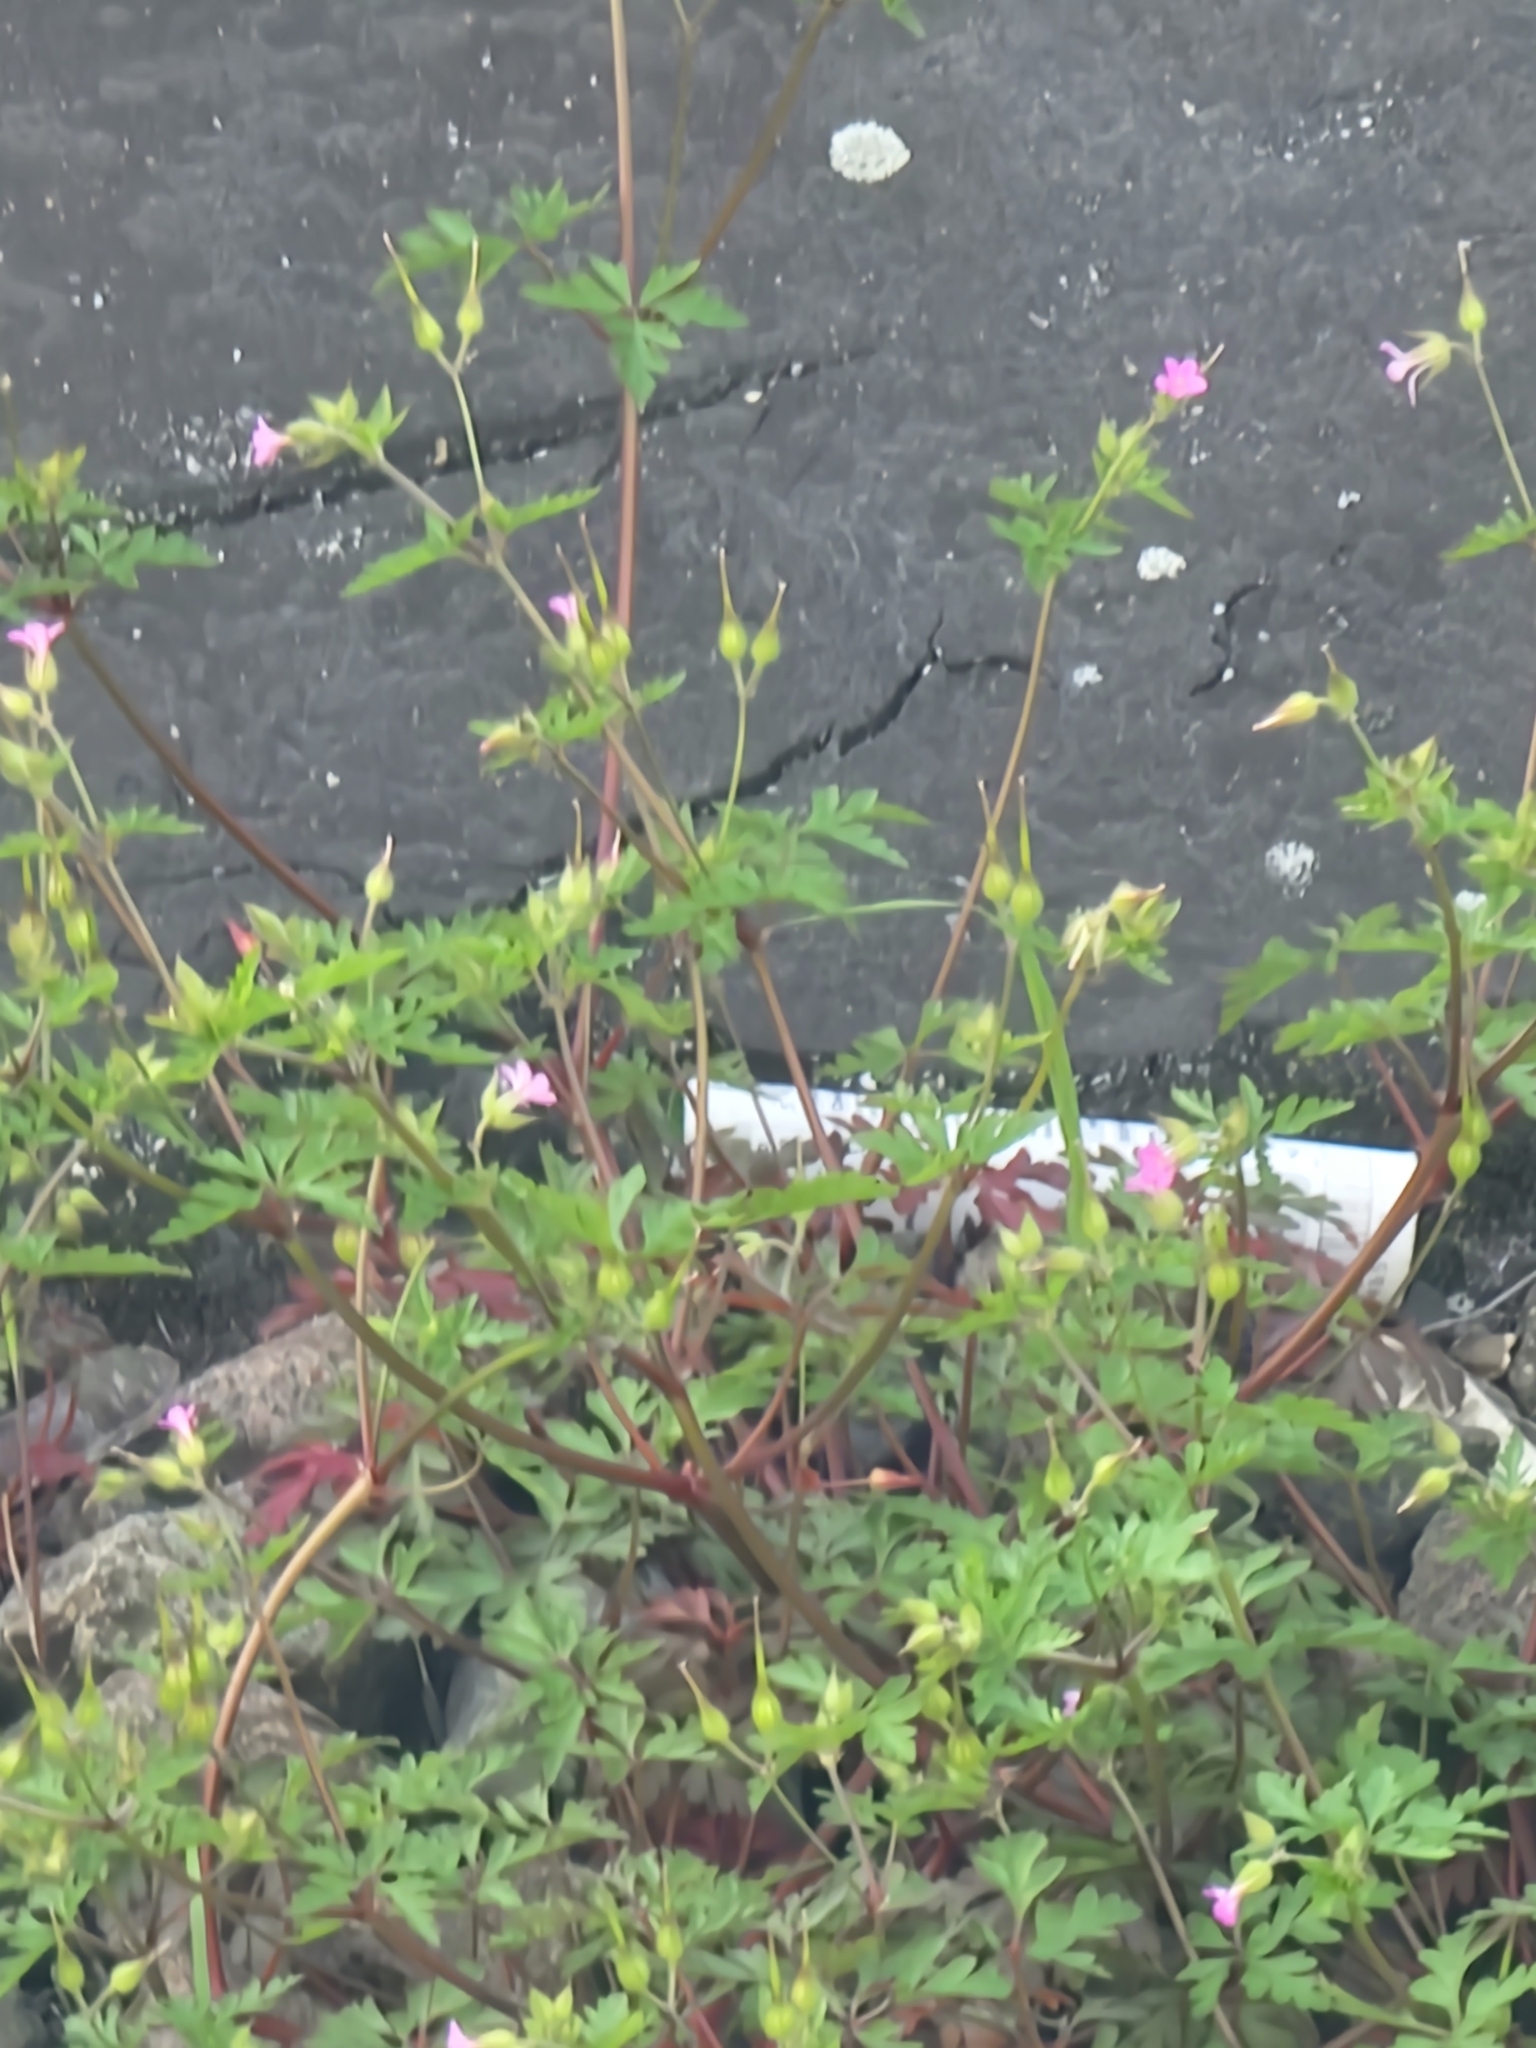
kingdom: Plantae
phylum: Tracheophyta
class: Magnoliopsida
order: Geraniales
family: Geraniaceae
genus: Geranium
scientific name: Geranium purpureum
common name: Little-robin
